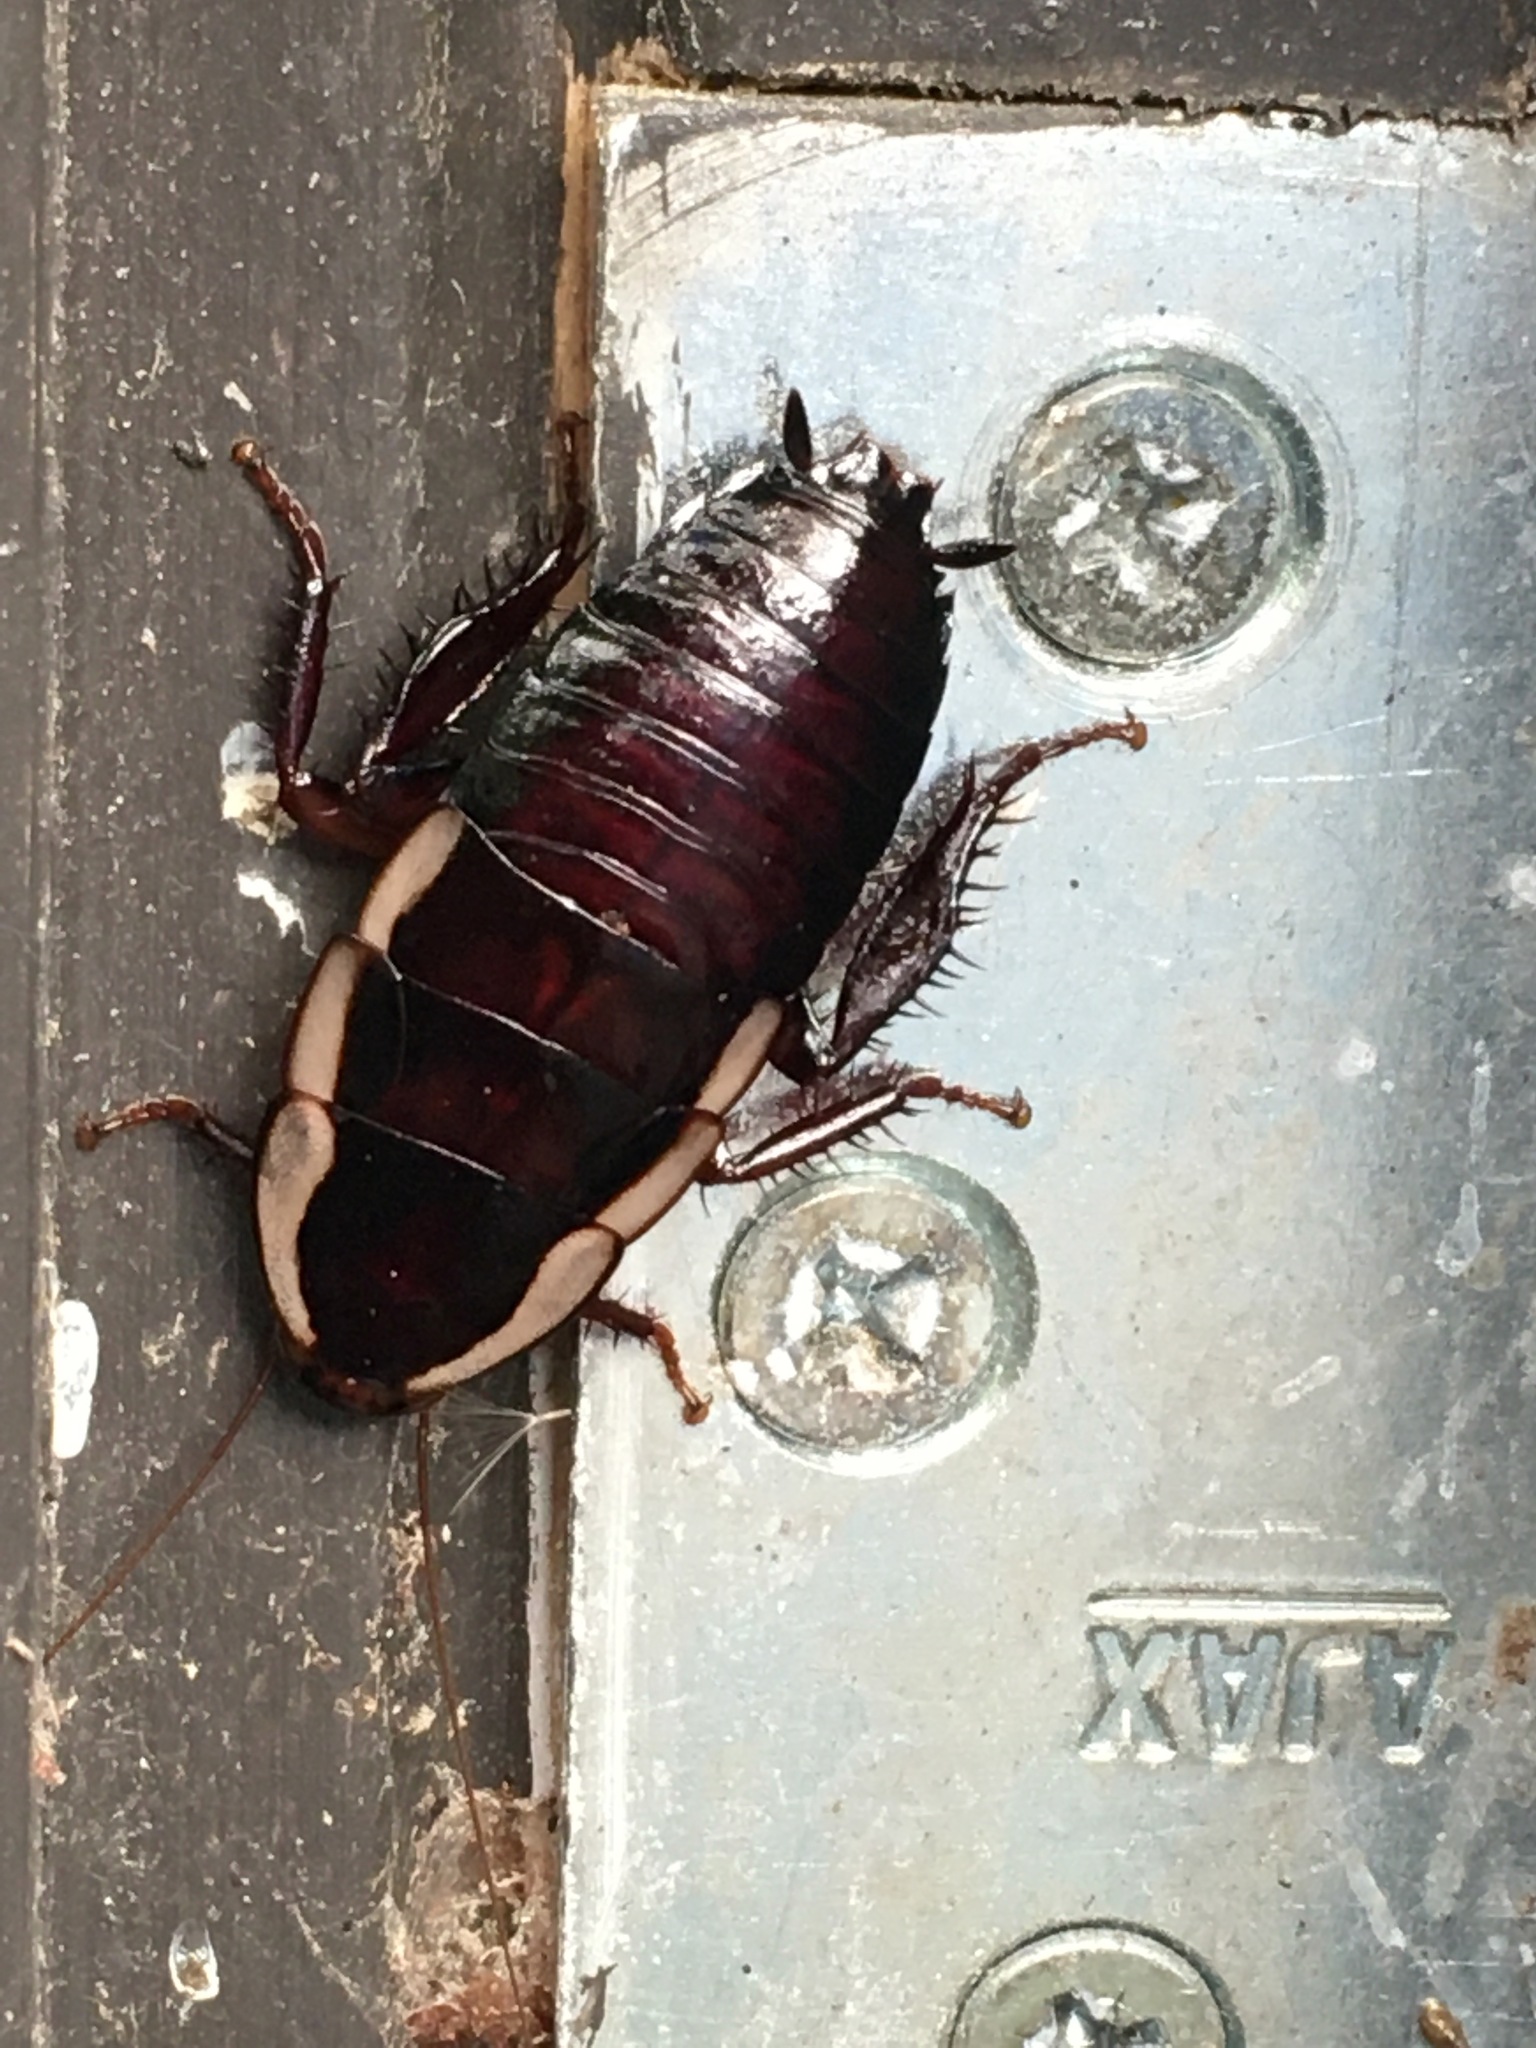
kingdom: Animalia
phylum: Arthropoda
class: Insecta
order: Blattodea
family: Blattidae
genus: Drymaplaneta
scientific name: Drymaplaneta semivitta
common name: Gisborne cockroach
